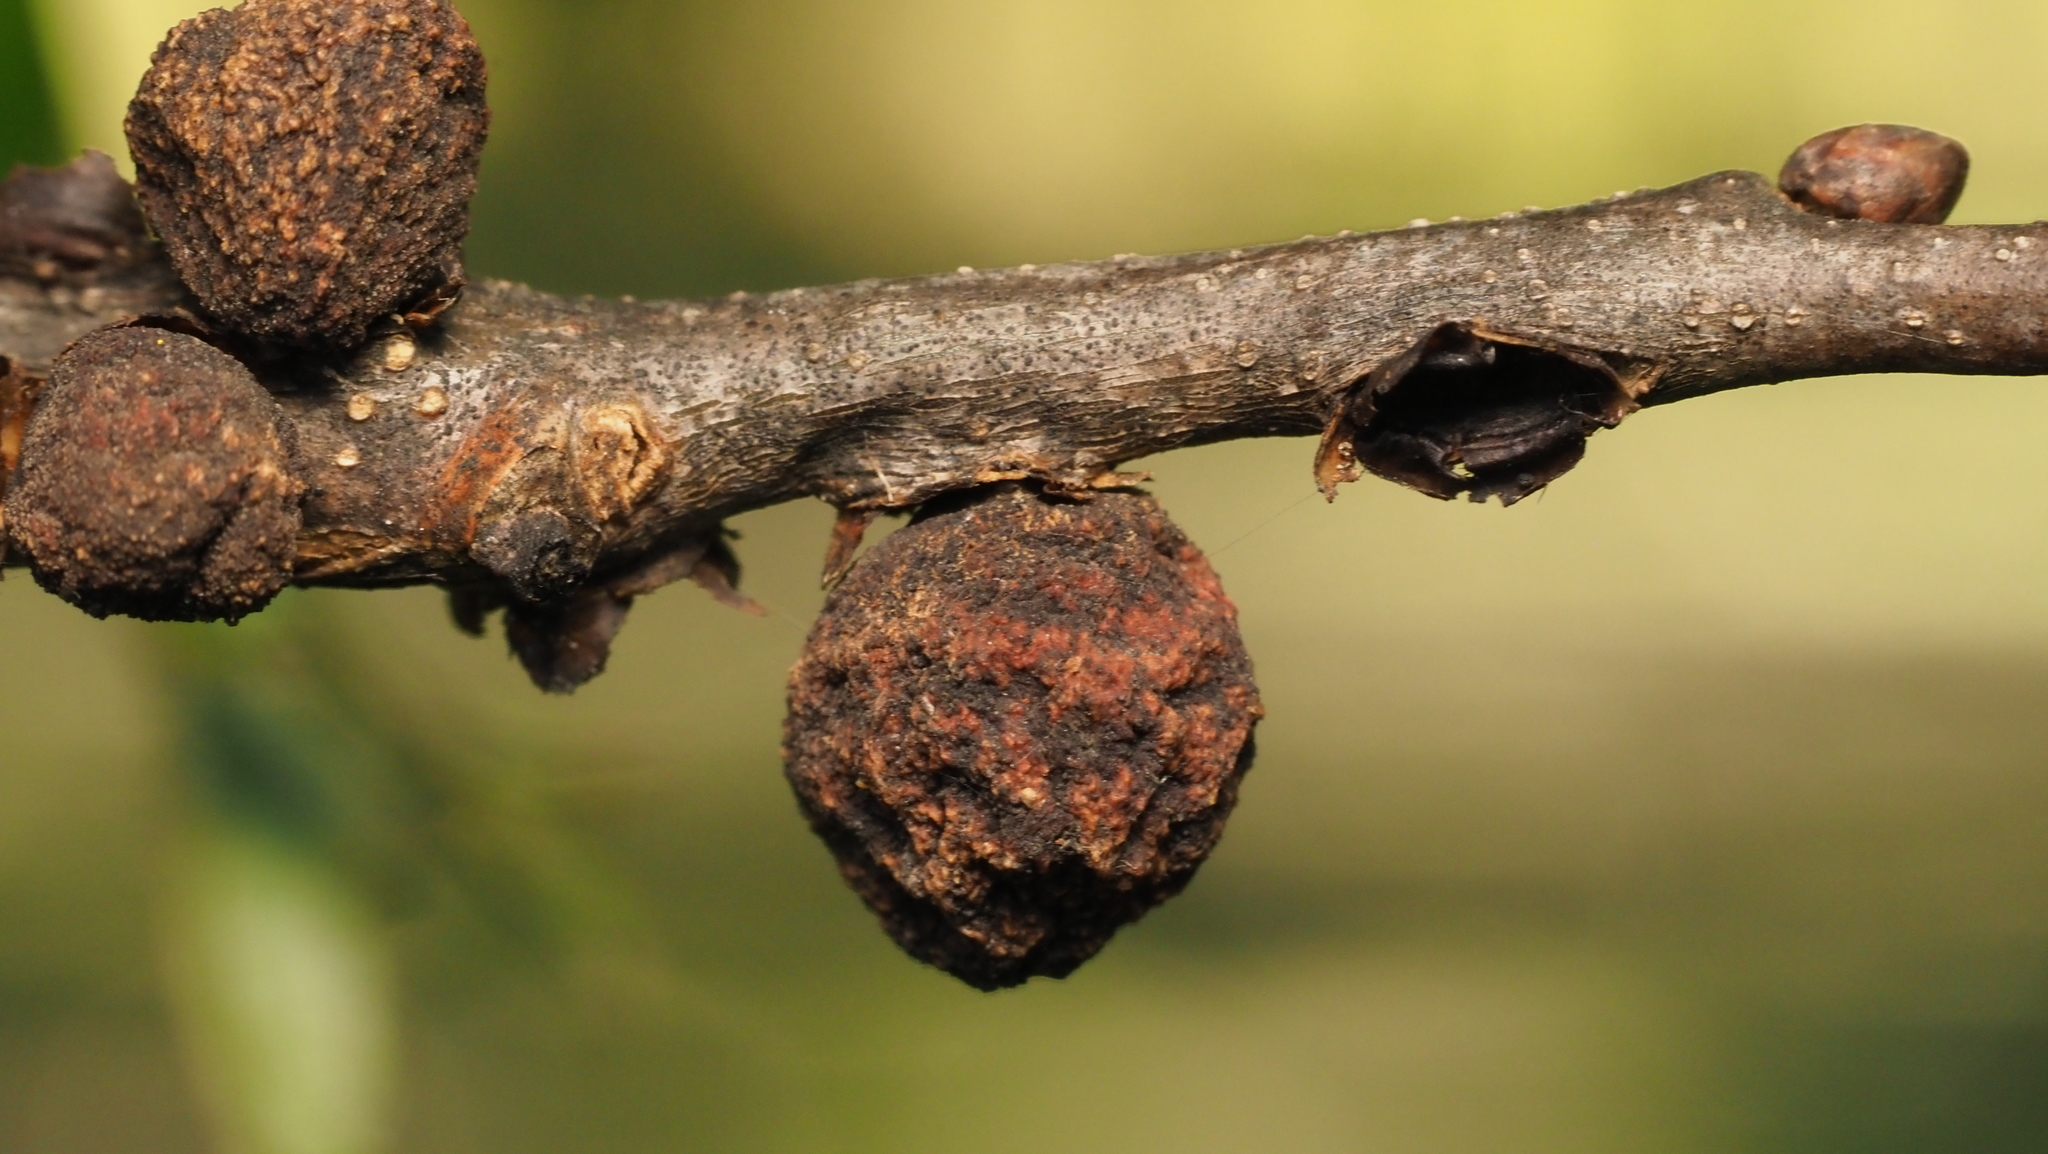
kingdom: Animalia
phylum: Arthropoda
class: Insecta
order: Hymenoptera
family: Cynipidae
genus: Kokkocynips
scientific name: Kokkocynips imbricariae
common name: Banded bullet gall wasp
